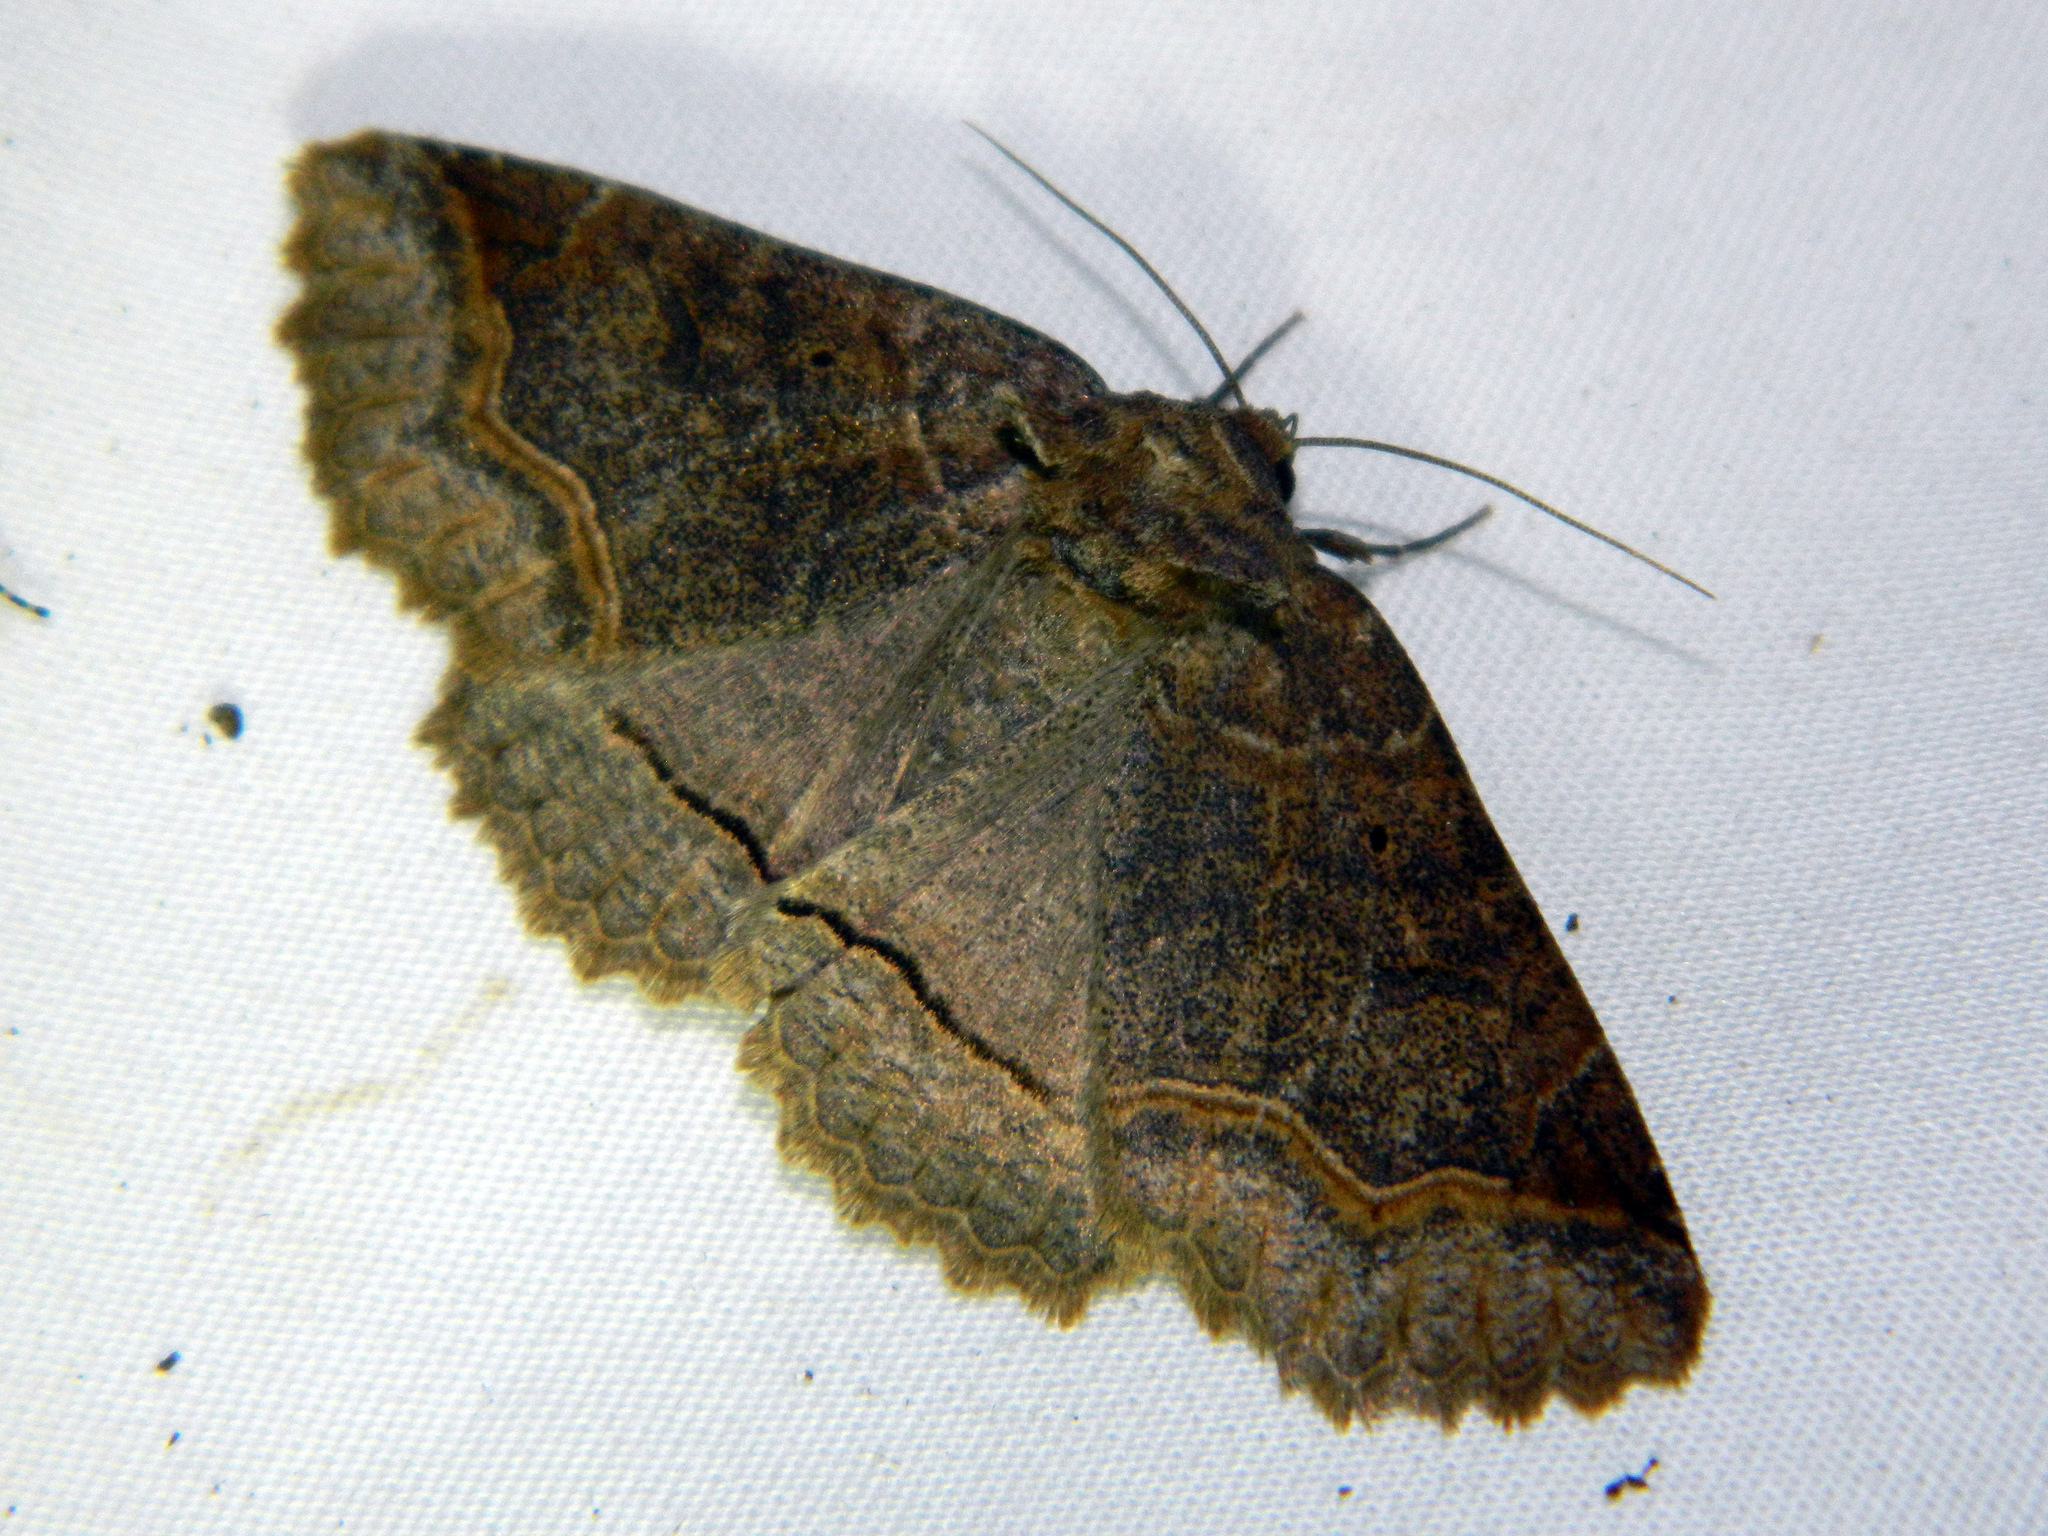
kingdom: Animalia
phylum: Arthropoda
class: Insecta
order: Lepidoptera
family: Erebidae
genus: Zale
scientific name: Zale unilineata
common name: One-lined zale moth
